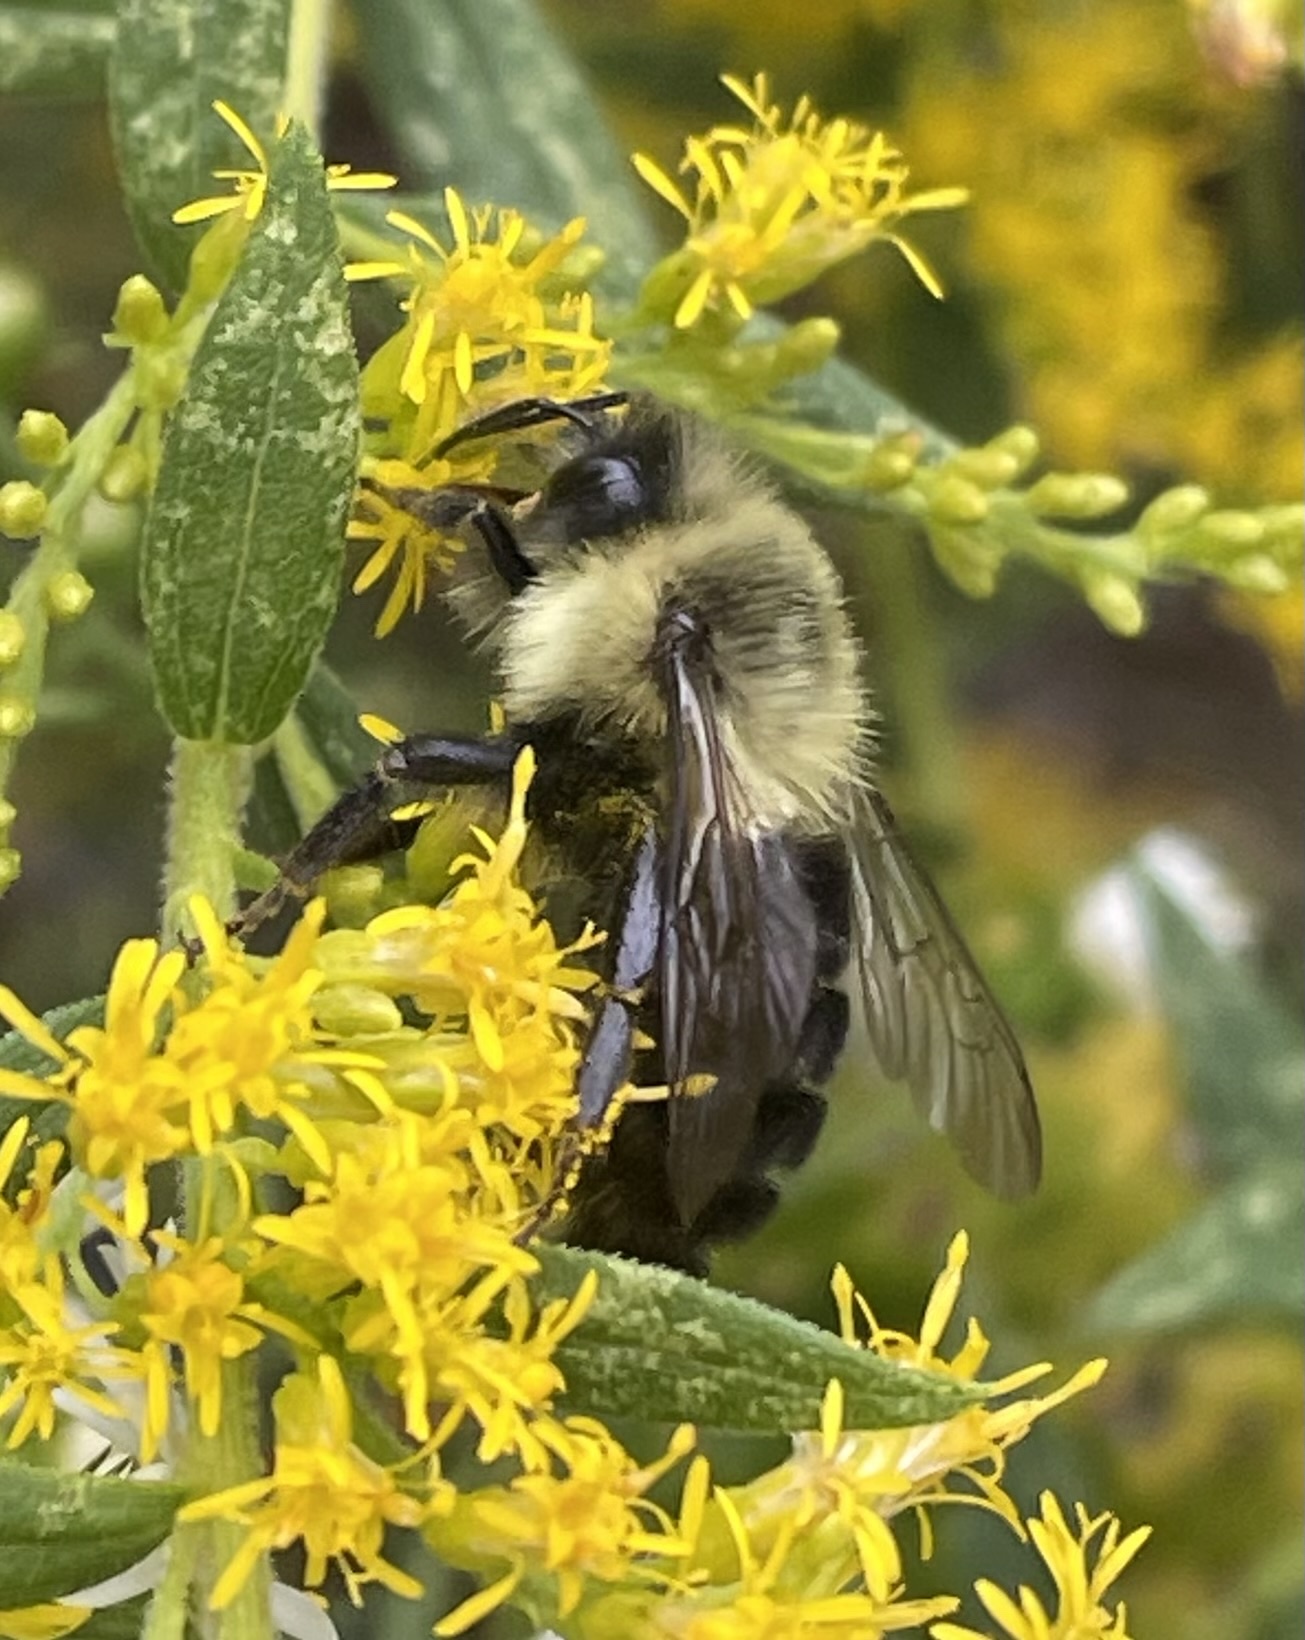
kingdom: Animalia
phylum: Arthropoda
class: Insecta
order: Hymenoptera
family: Apidae
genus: Bombus
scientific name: Bombus impatiens
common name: Common eastern bumble bee
